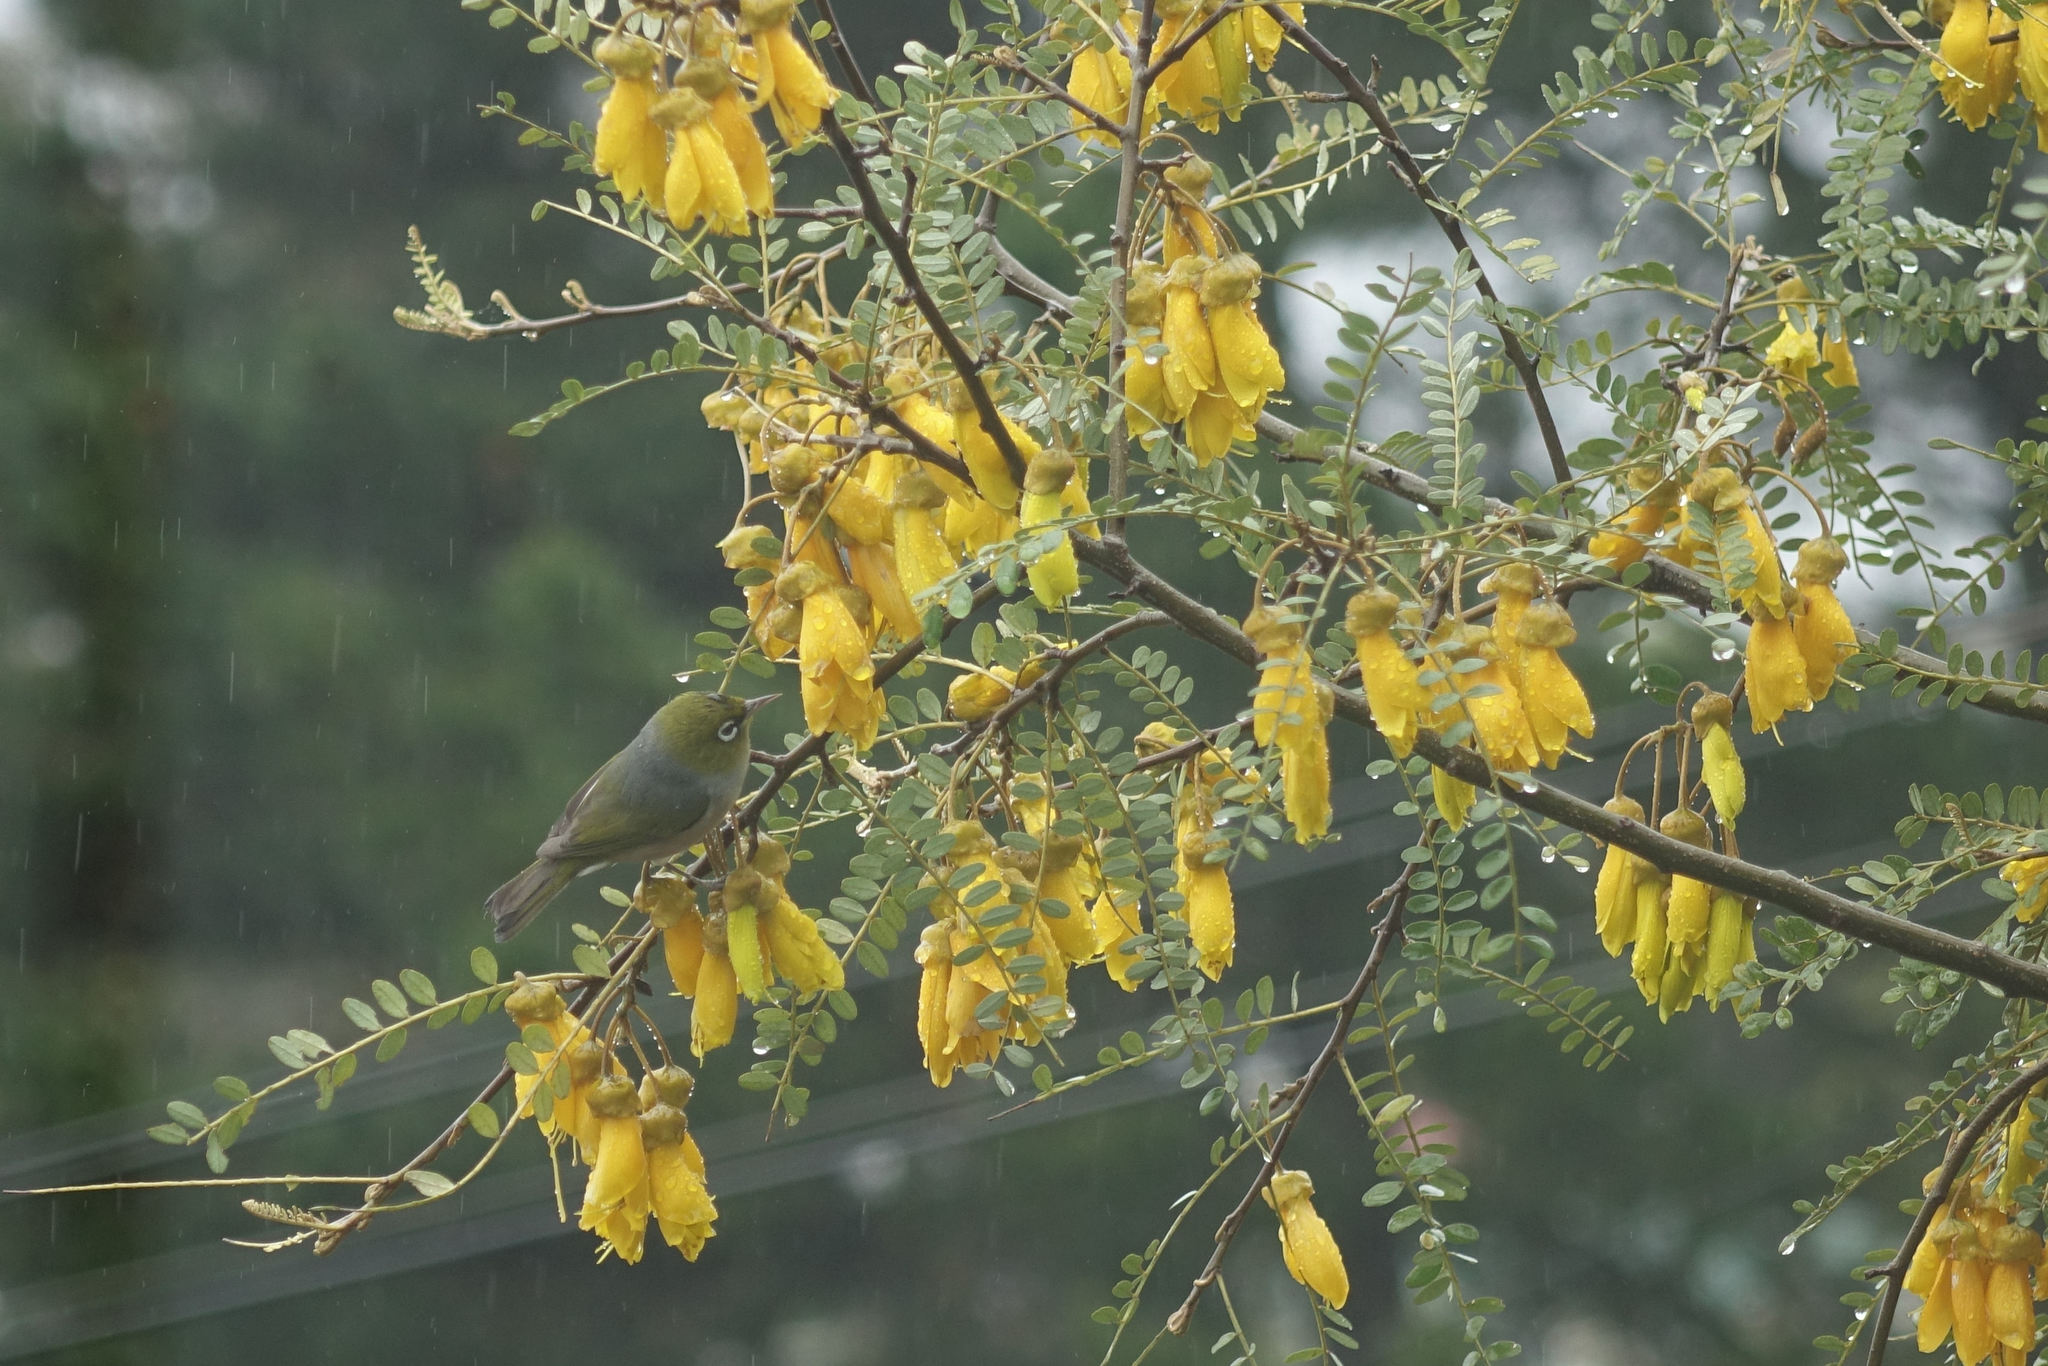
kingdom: Animalia
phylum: Chordata
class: Aves
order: Passeriformes
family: Zosteropidae
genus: Zosterops
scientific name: Zosterops lateralis
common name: Silvereye
